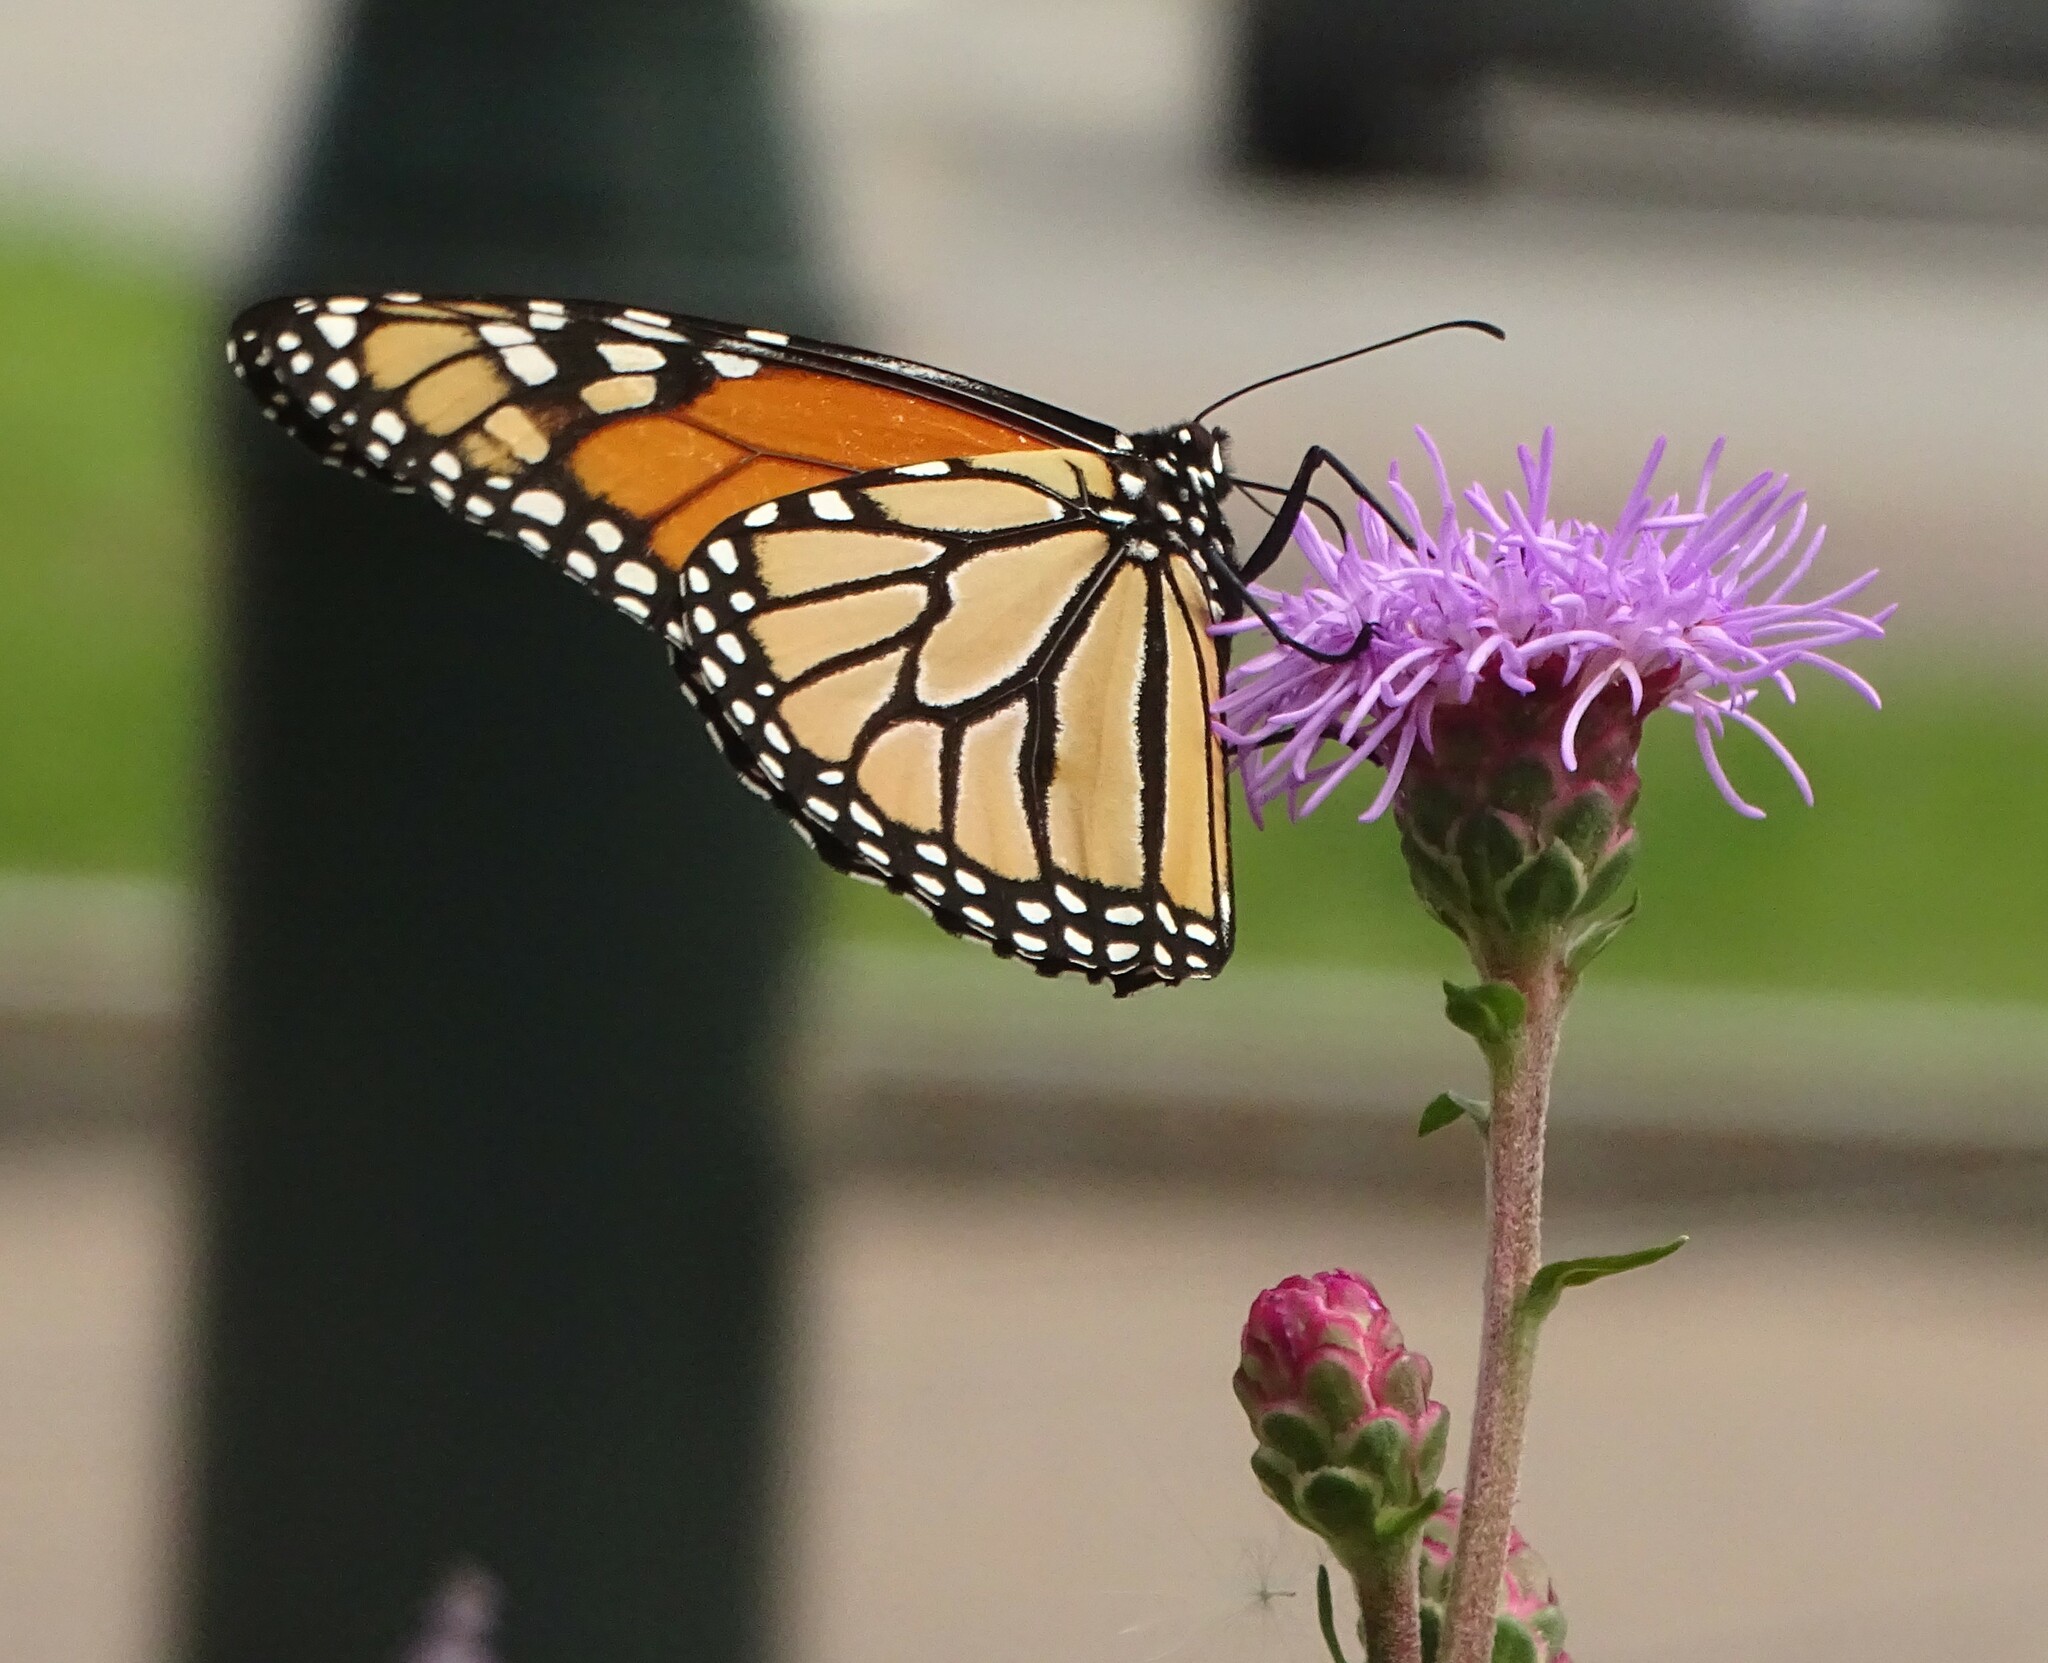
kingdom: Animalia
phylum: Arthropoda
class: Insecta
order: Lepidoptera
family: Nymphalidae
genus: Danaus
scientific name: Danaus plexippus
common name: Monarch
